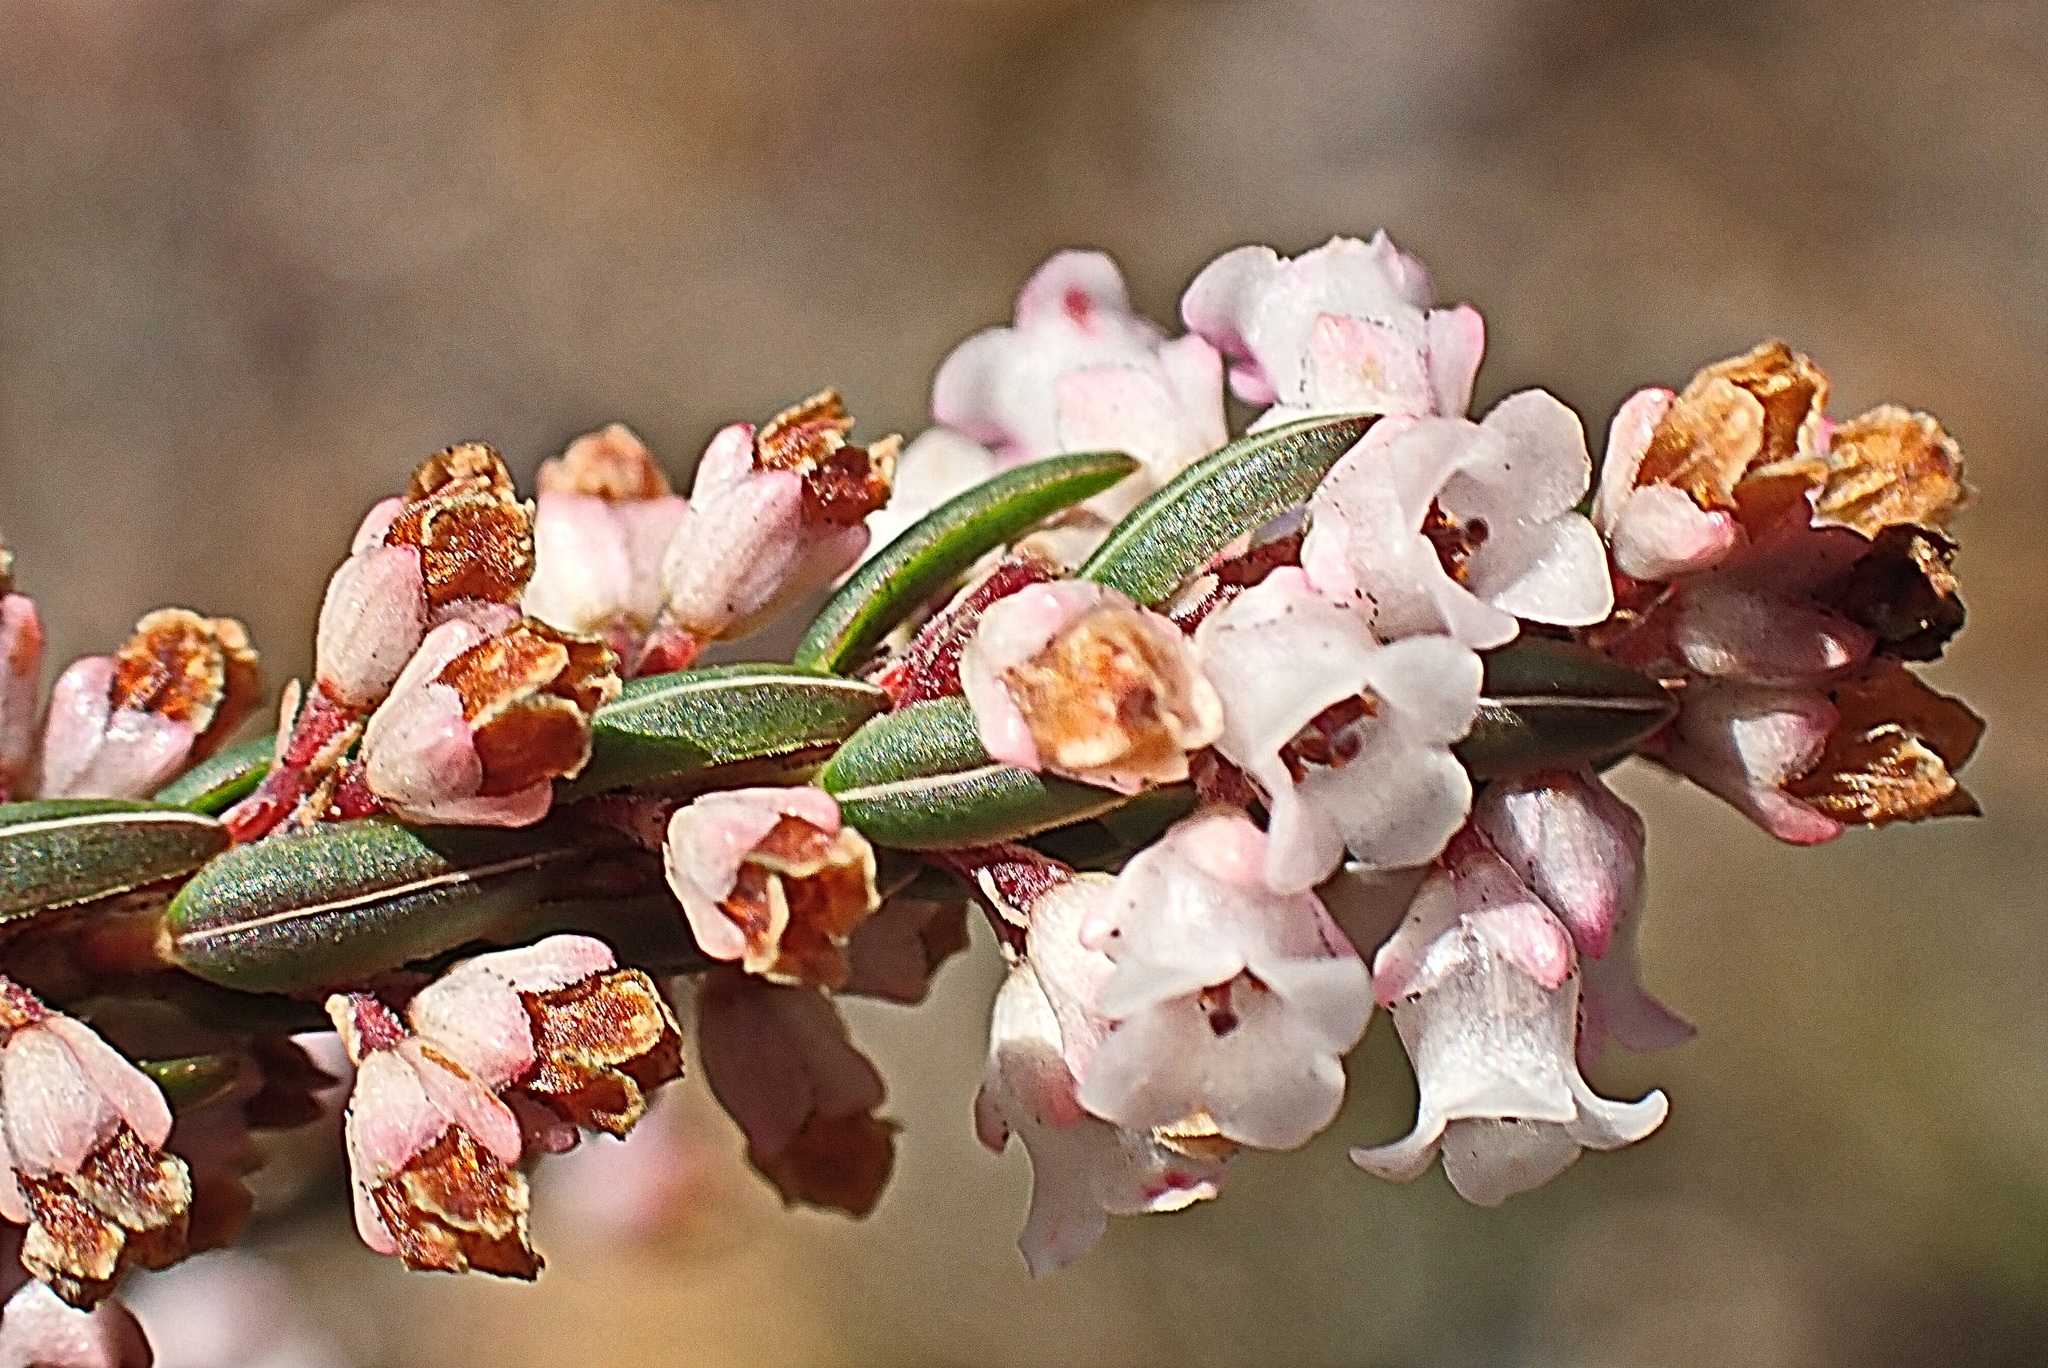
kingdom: Plantae
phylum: Tracheophyta
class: Magnoliopsida
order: Ericales
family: Ericaceae
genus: Erica
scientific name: Erica articularis
